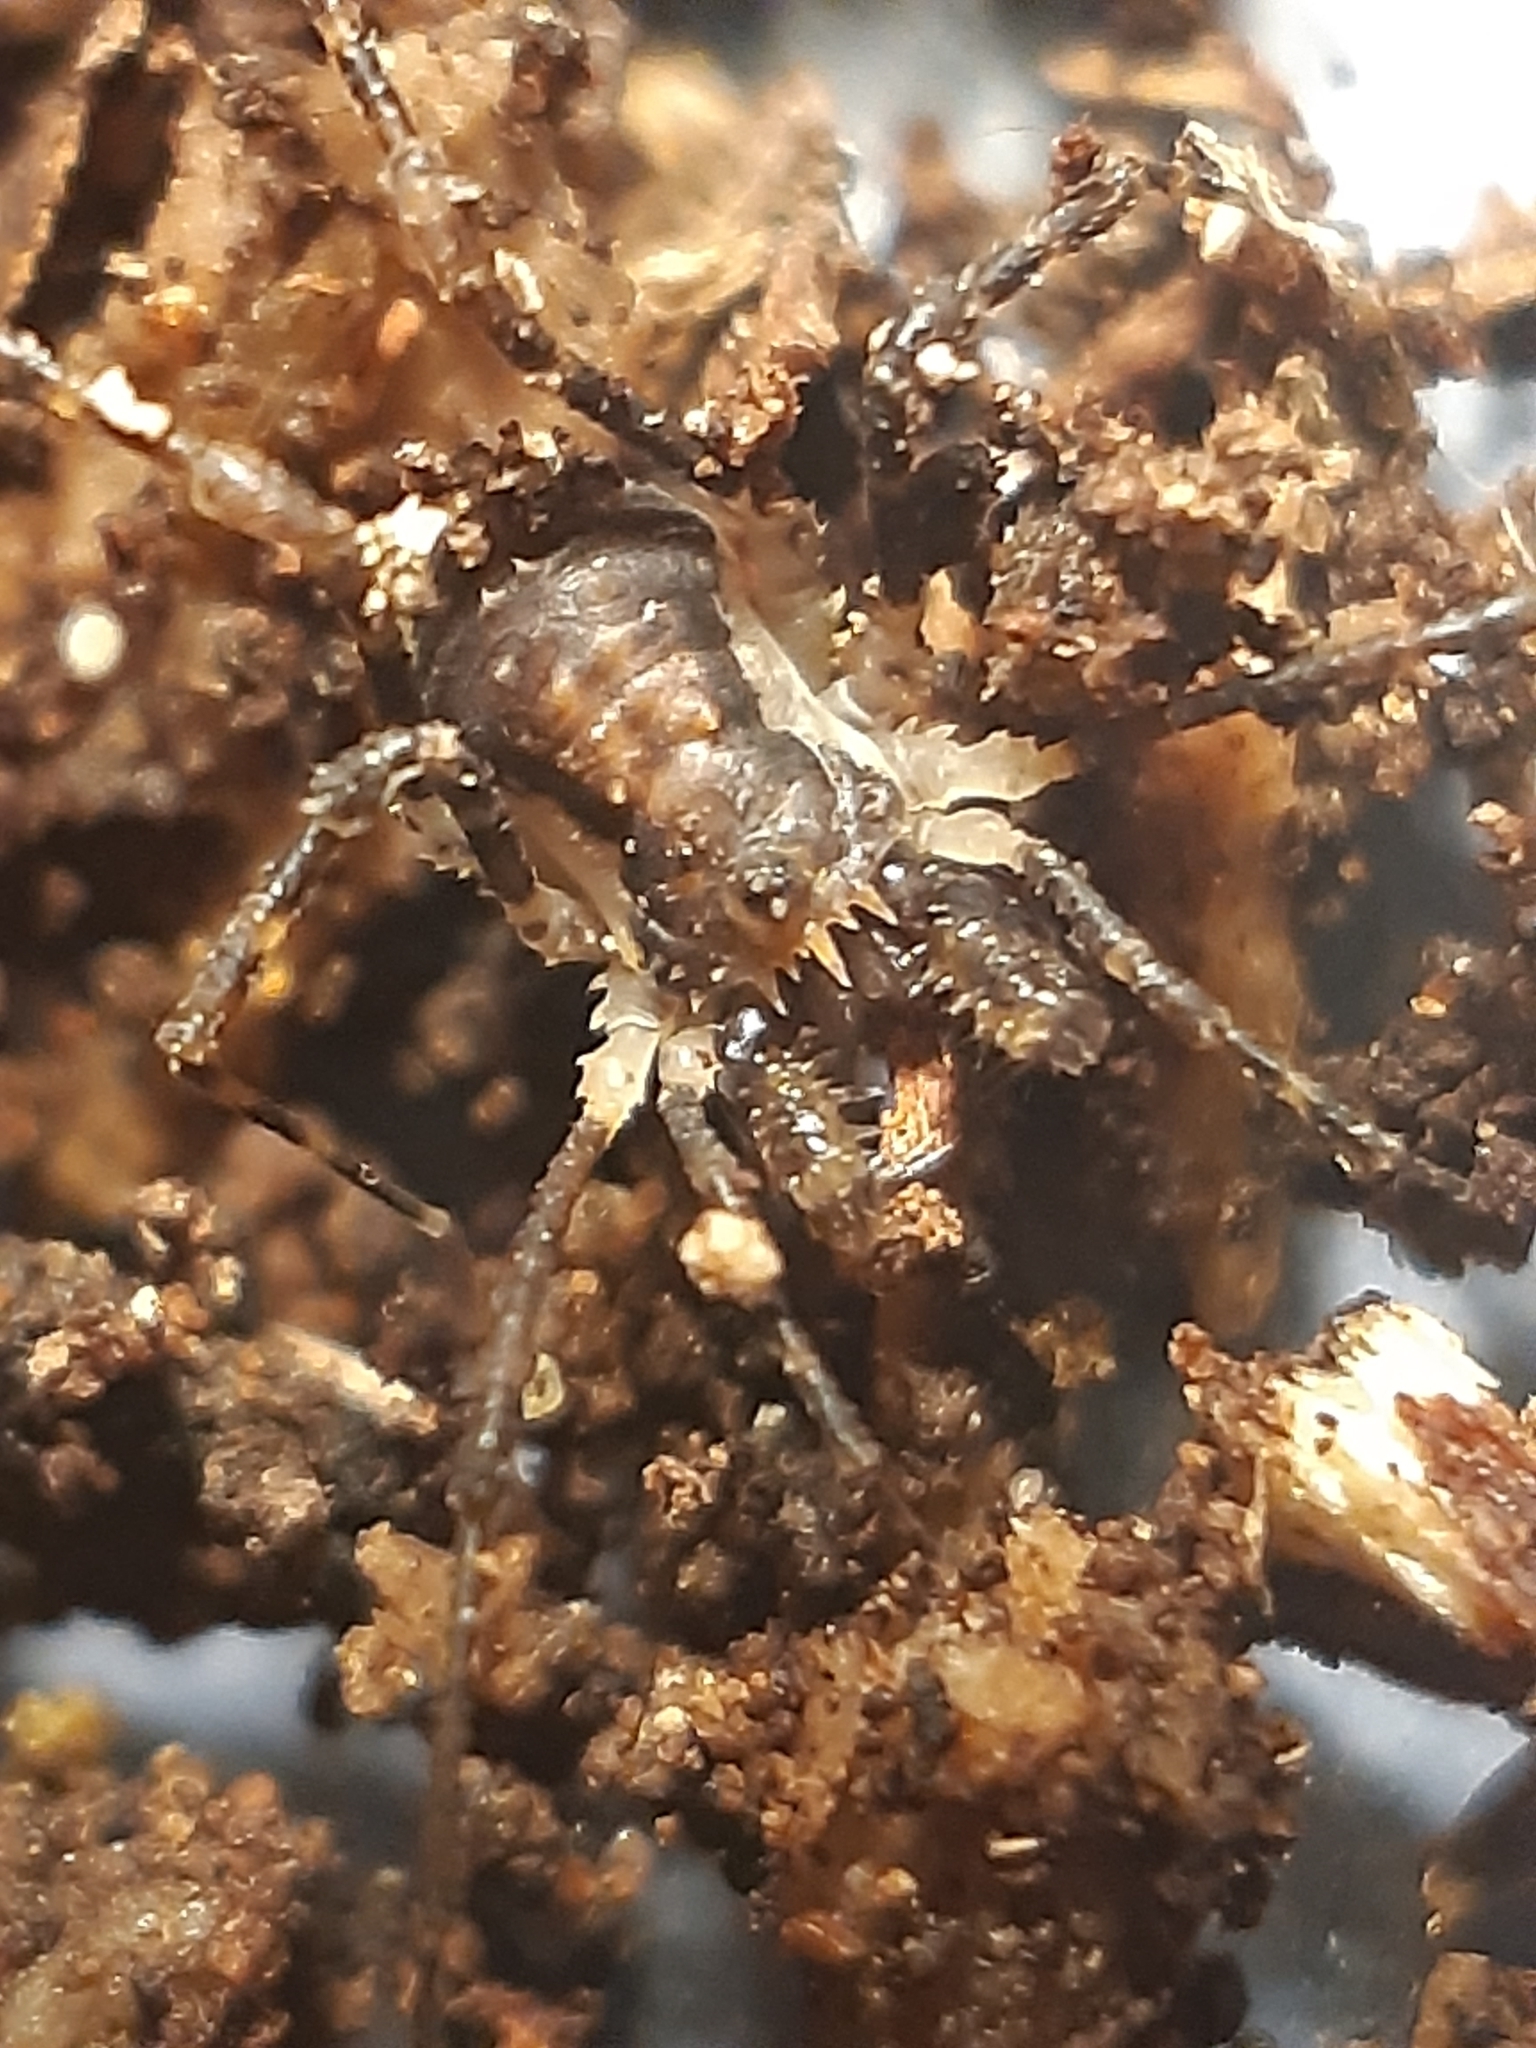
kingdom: Animalia
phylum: Arthropoda
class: Arachnida
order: Opiliones
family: Triaenonychidae
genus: Algidia
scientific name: Algidia nigriflava
